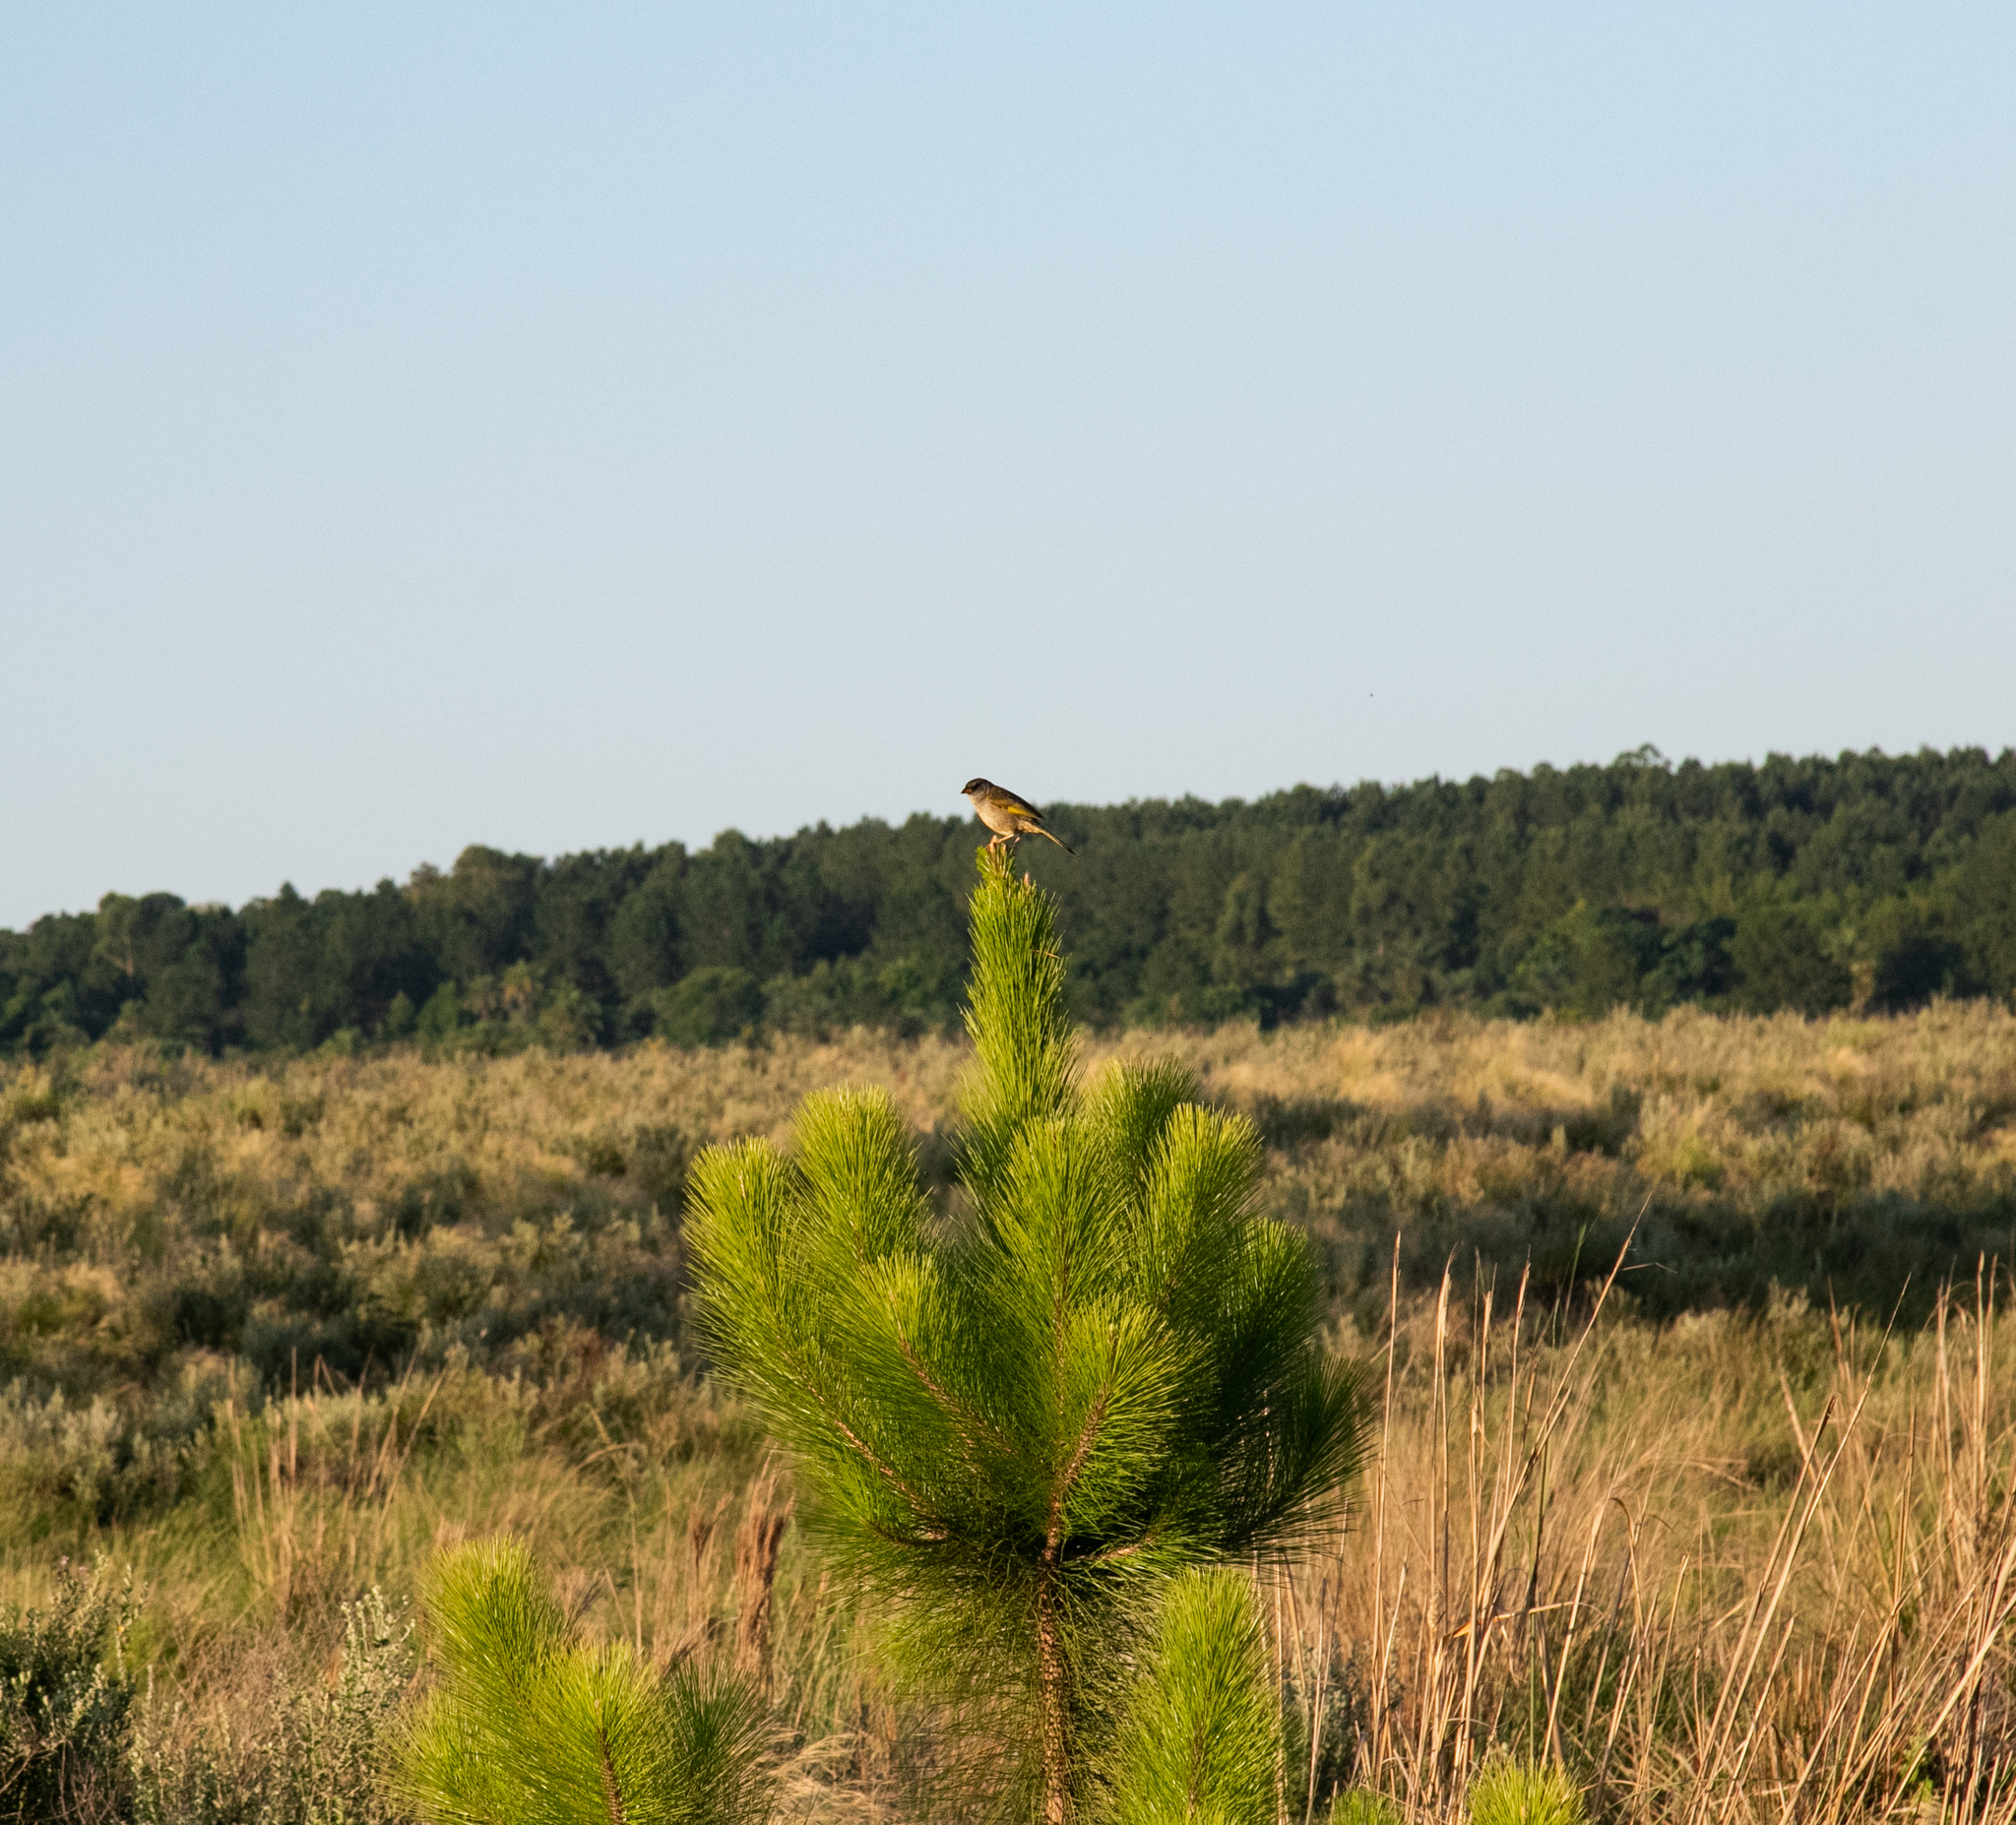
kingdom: Animalia
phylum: Chordata
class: Aves
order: Passeriformes
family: Thraupidae
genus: Embernagra
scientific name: Embernagra platensis
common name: Pampa finch
